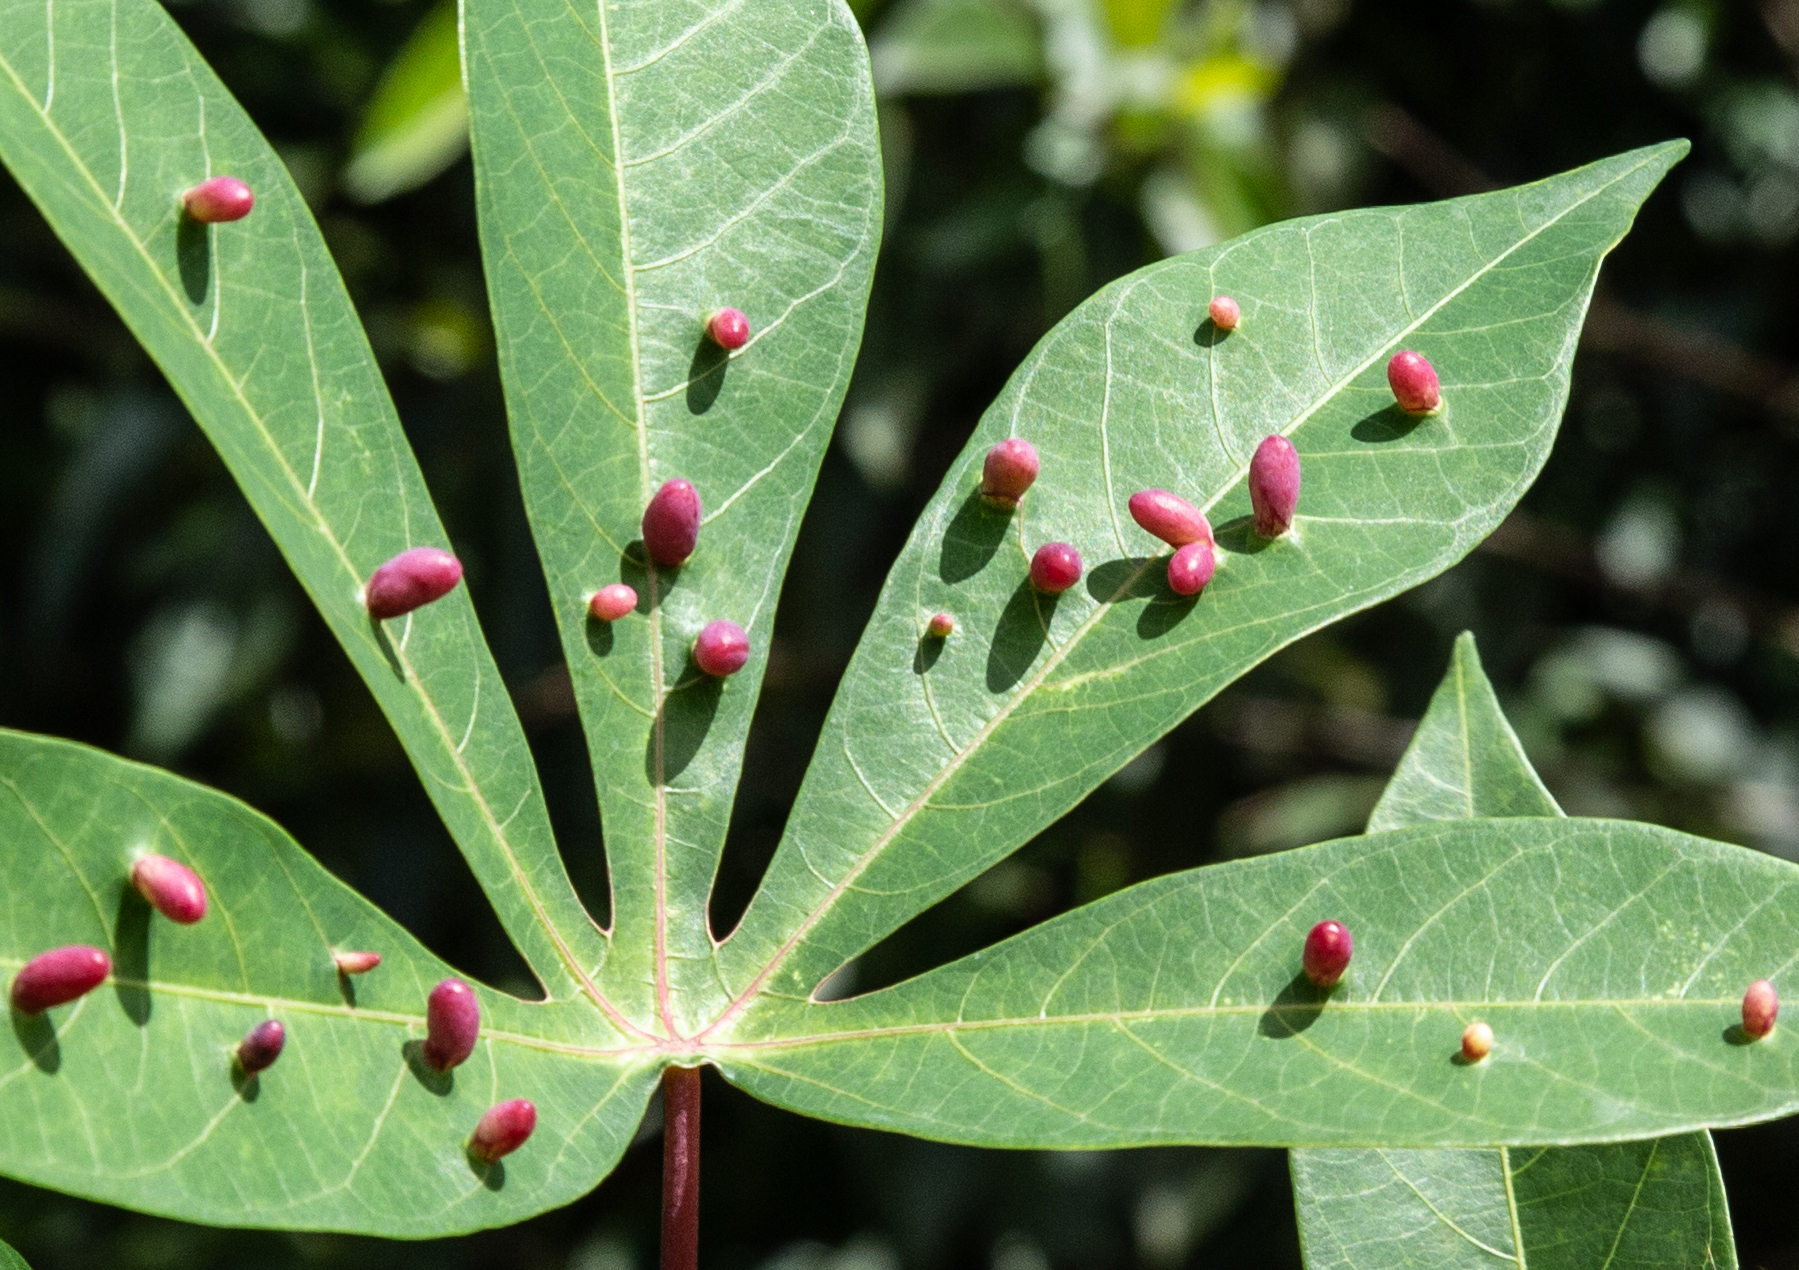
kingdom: Animalia
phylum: Arthropoda
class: Insecta
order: Diptera
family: Cecidomyiidae
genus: Iatrophobia
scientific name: Iatrophobia brasiliensis
